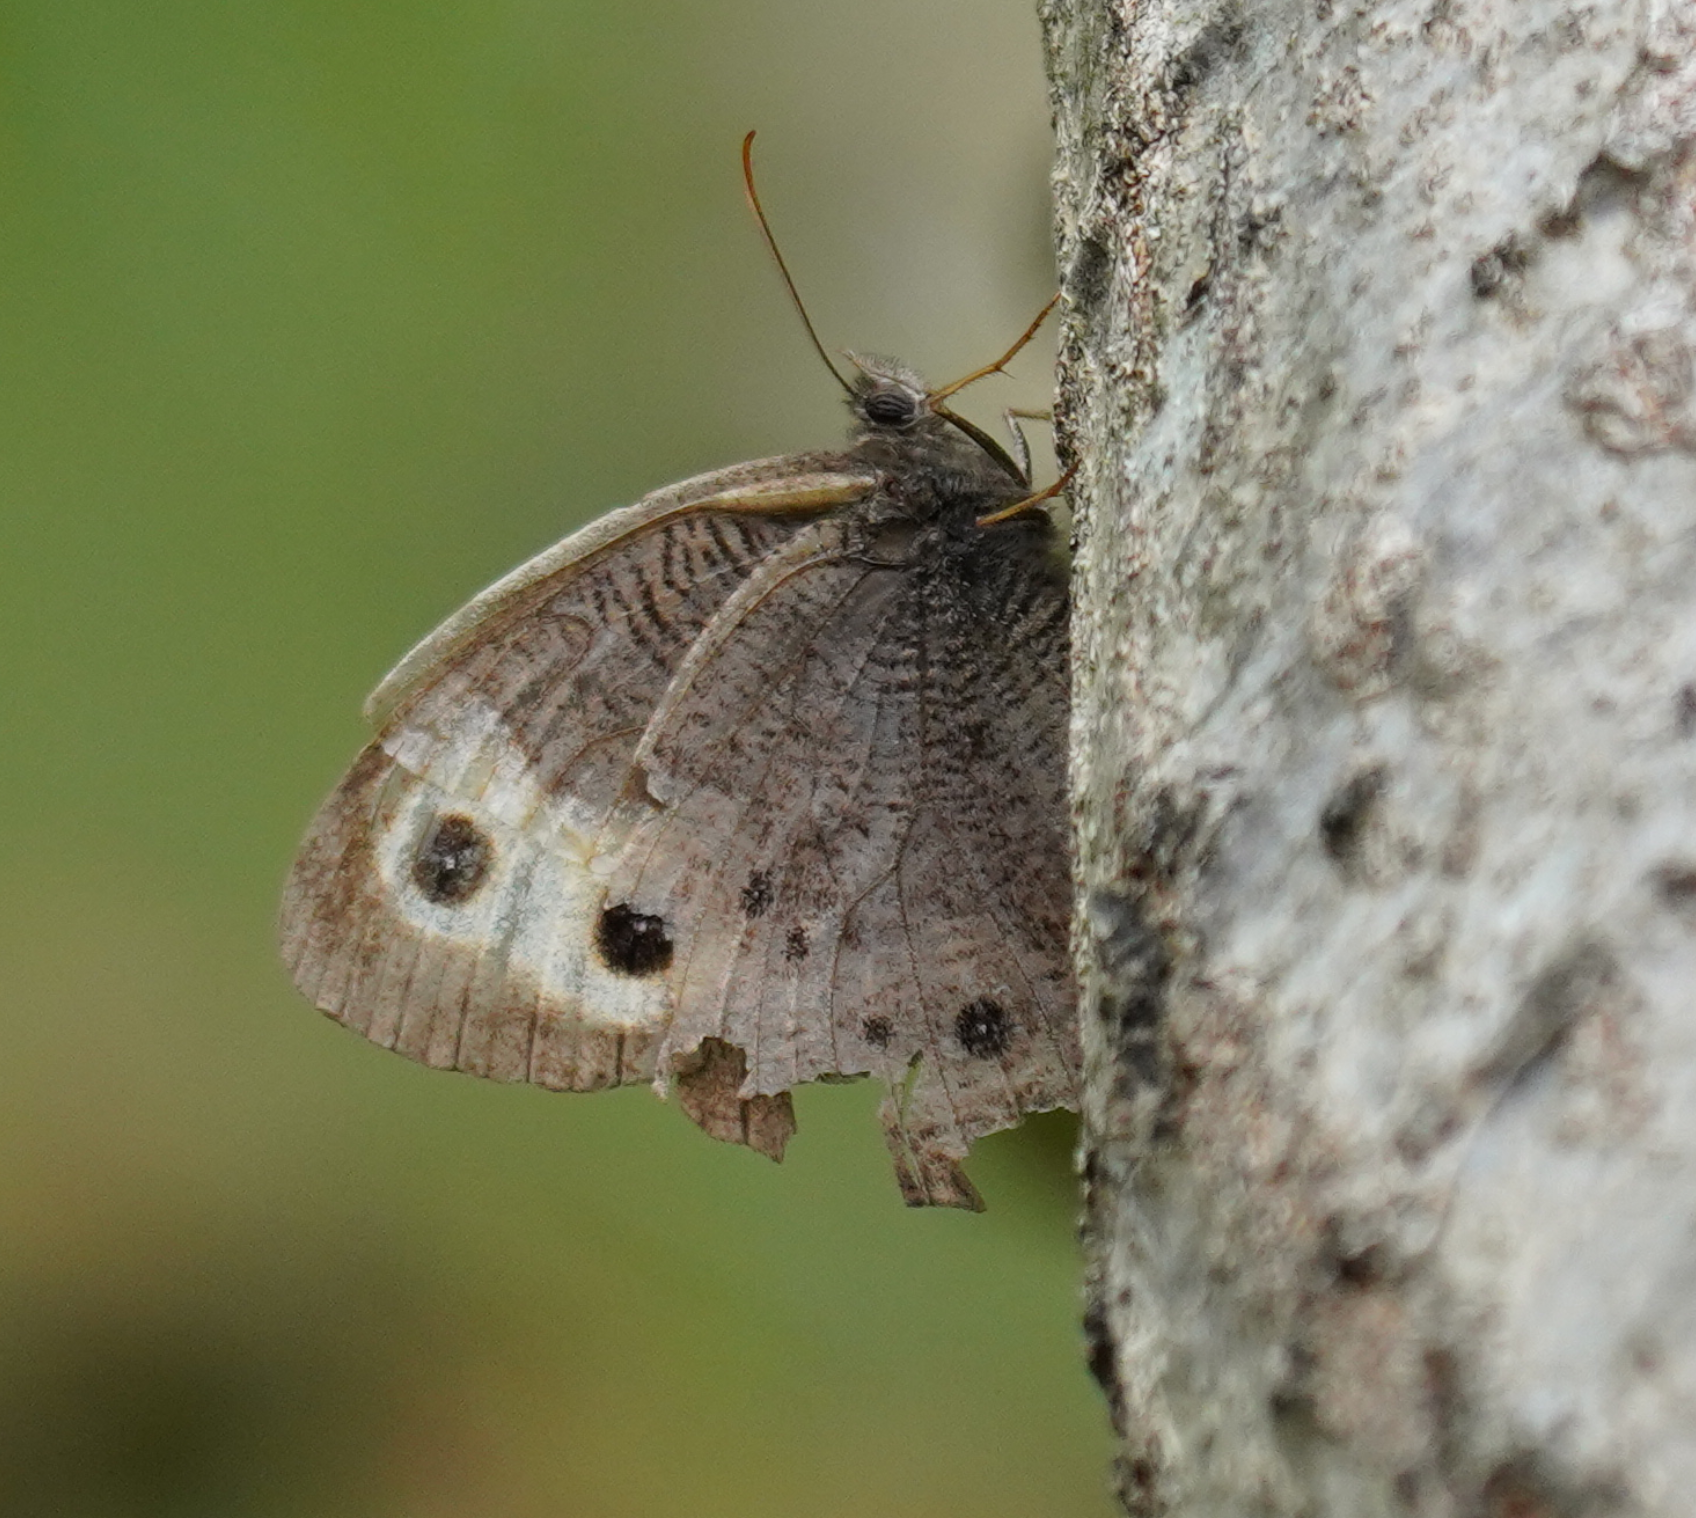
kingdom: Animalia
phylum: Arthropoda
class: Insecta
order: Lepidoptera
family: Nymphalidae
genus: Cercyonis
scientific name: Cercyonis pegala
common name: Common wood-nymph
